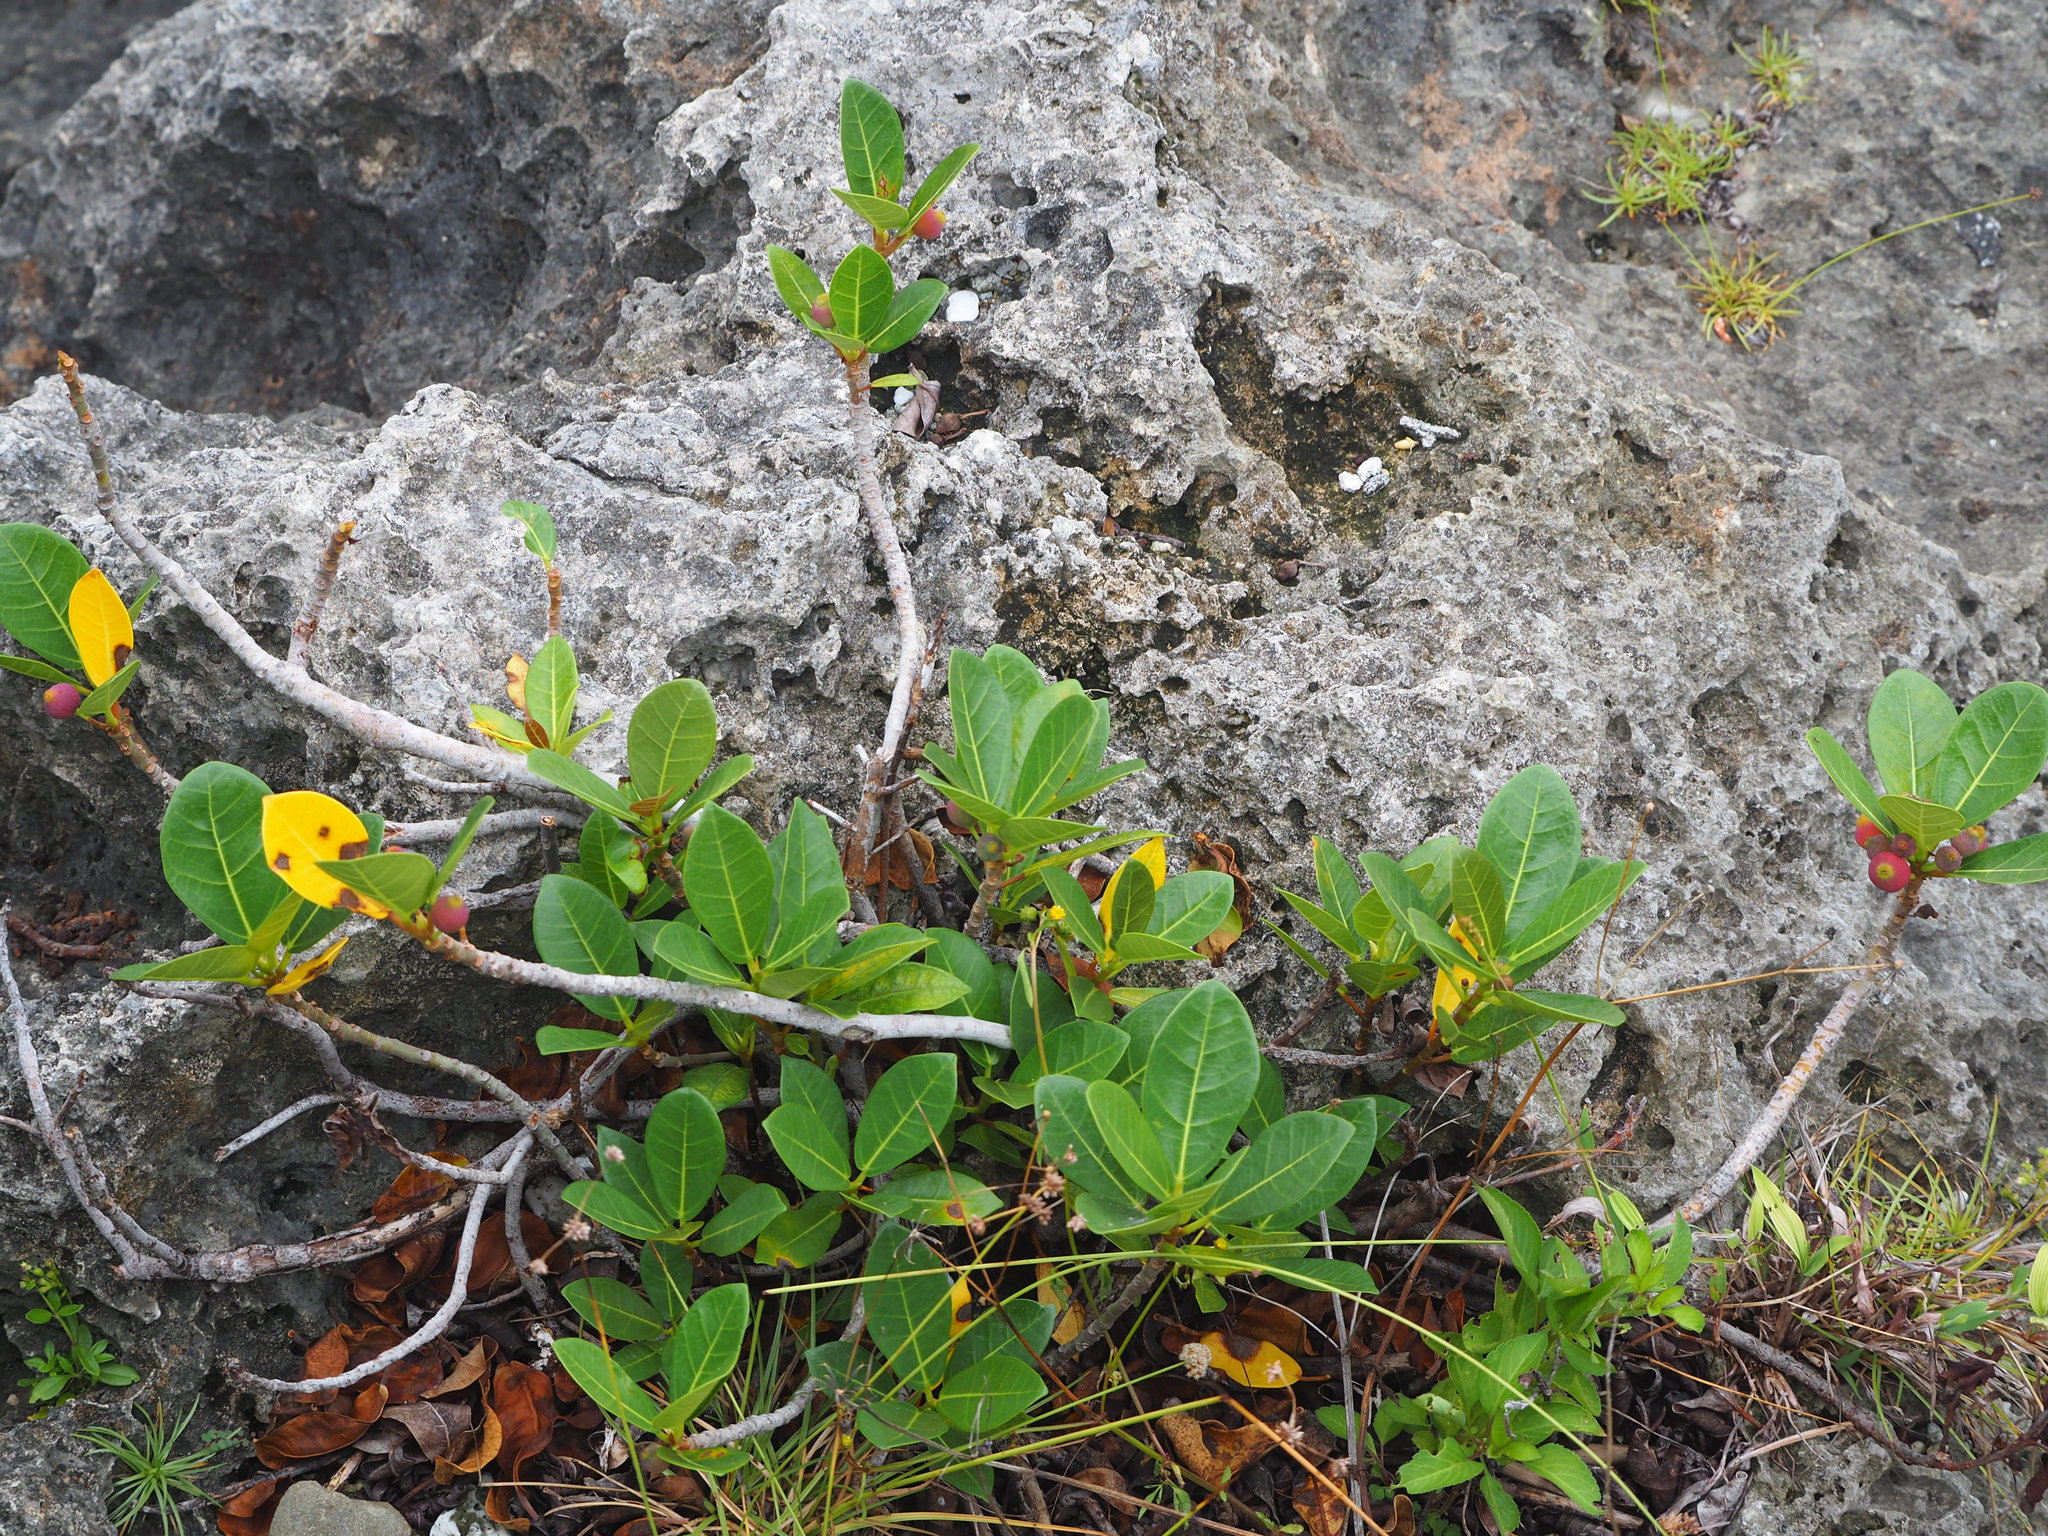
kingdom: Plantae
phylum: Tracheophyta
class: Magnoliopsida
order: Rosales
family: Moraceae
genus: Ficus
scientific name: Ficus pedunculosa
